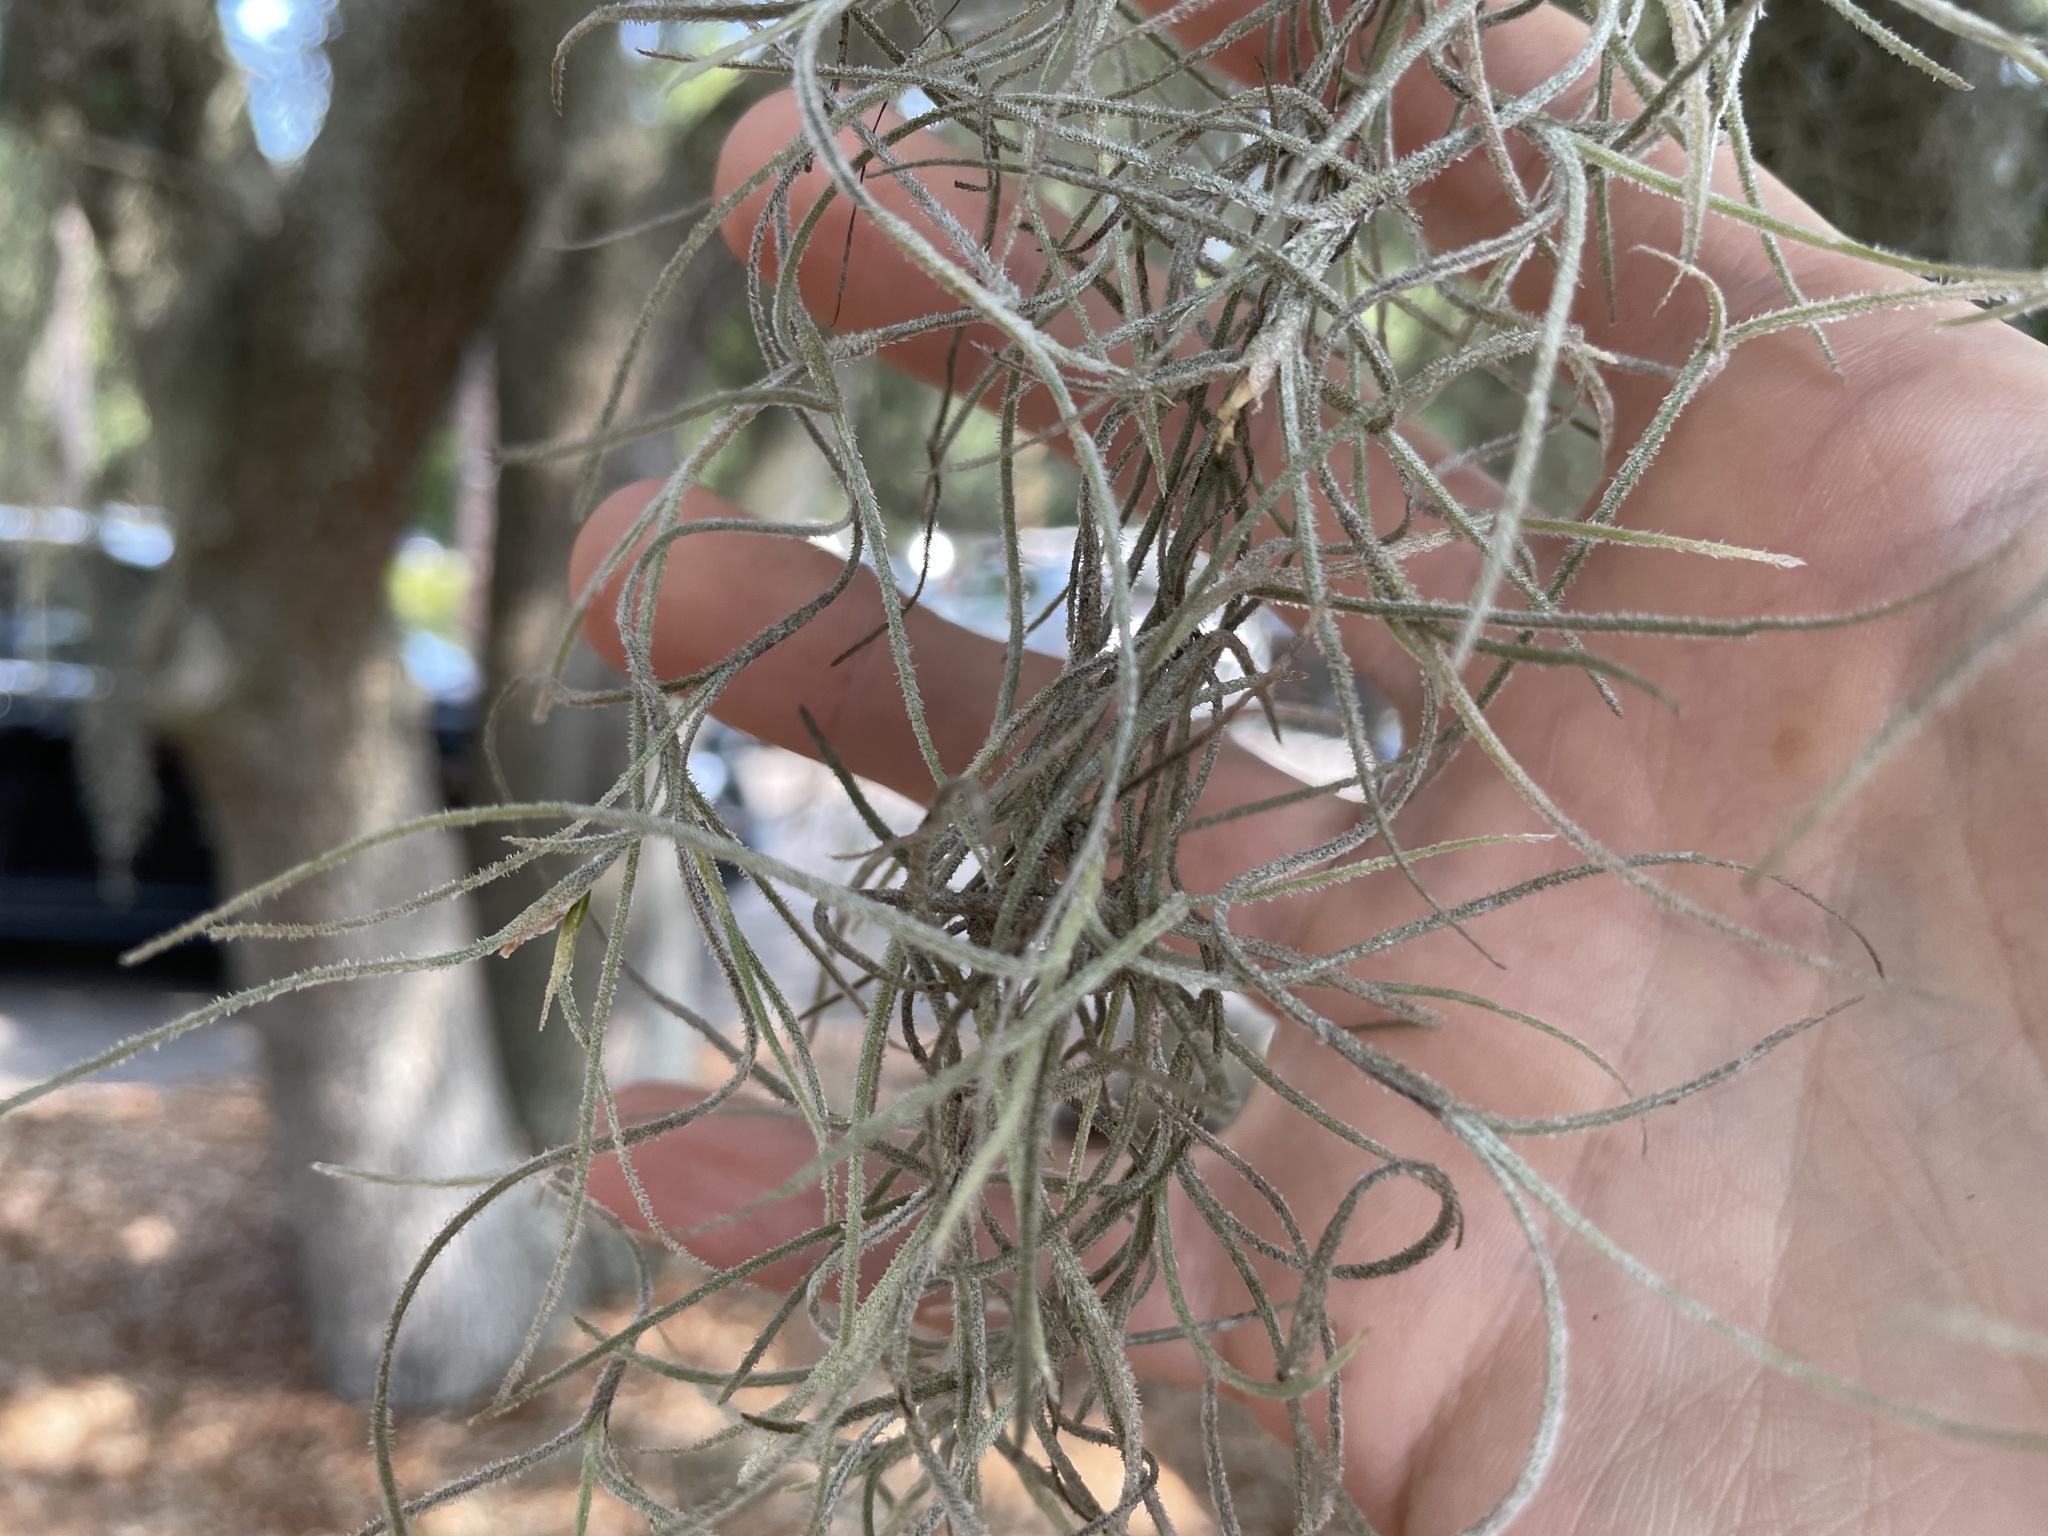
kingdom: Plantae
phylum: Tracheophyta
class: Liliopsida
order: Poales
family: Bromeliaceae
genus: Tillandsia
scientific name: Tillandsia usneoides
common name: Spanish moss
